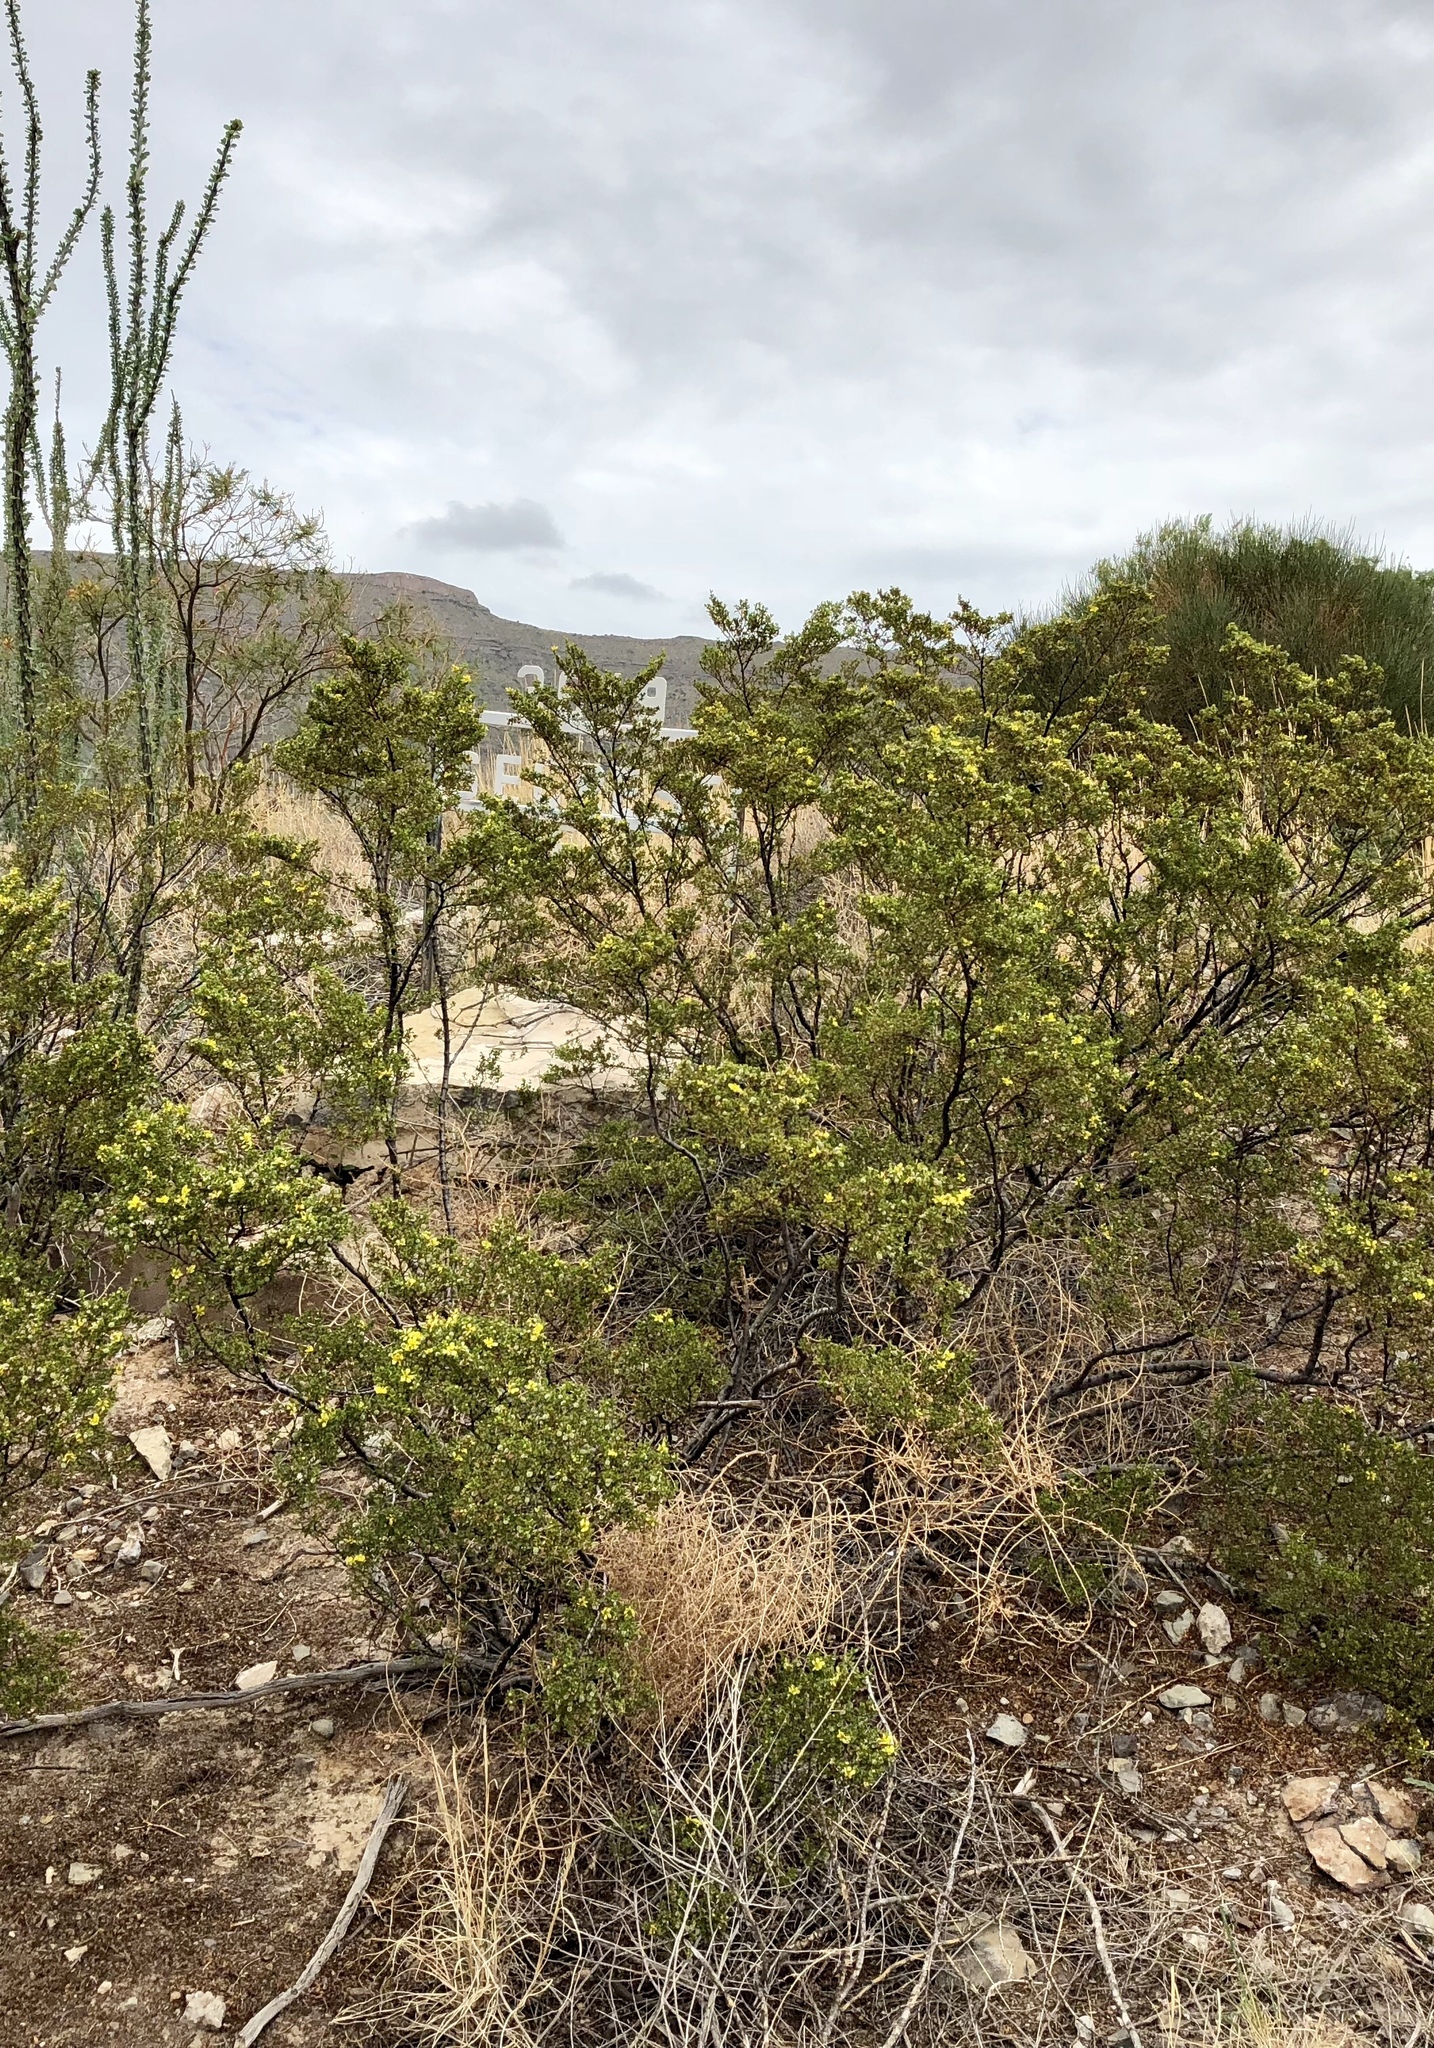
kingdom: Plantae
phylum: Tracheophyta
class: Magnoliopsida
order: Zygophyllales
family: Zygophyllaceae
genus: Larrea
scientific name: Larrea tridentata
